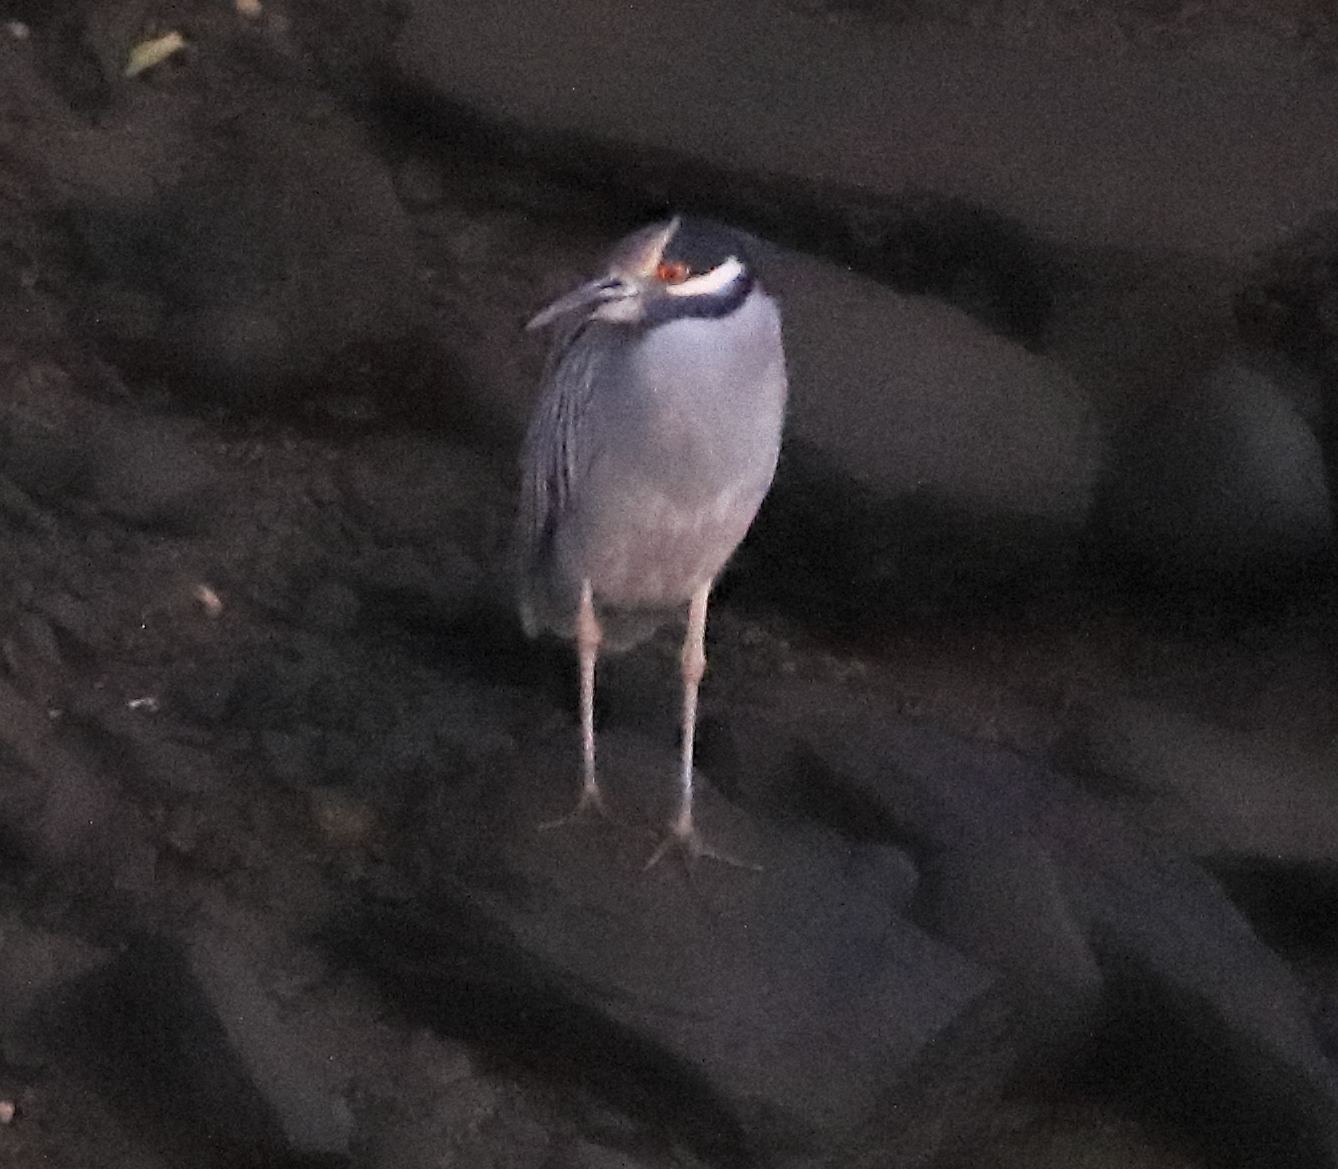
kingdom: Animalia
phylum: Chordata
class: Aves
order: Pelecaniformes
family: Ardeidae
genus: Nyctanassa
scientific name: Nyctanassa violacea
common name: Yellow-crowned night heron
